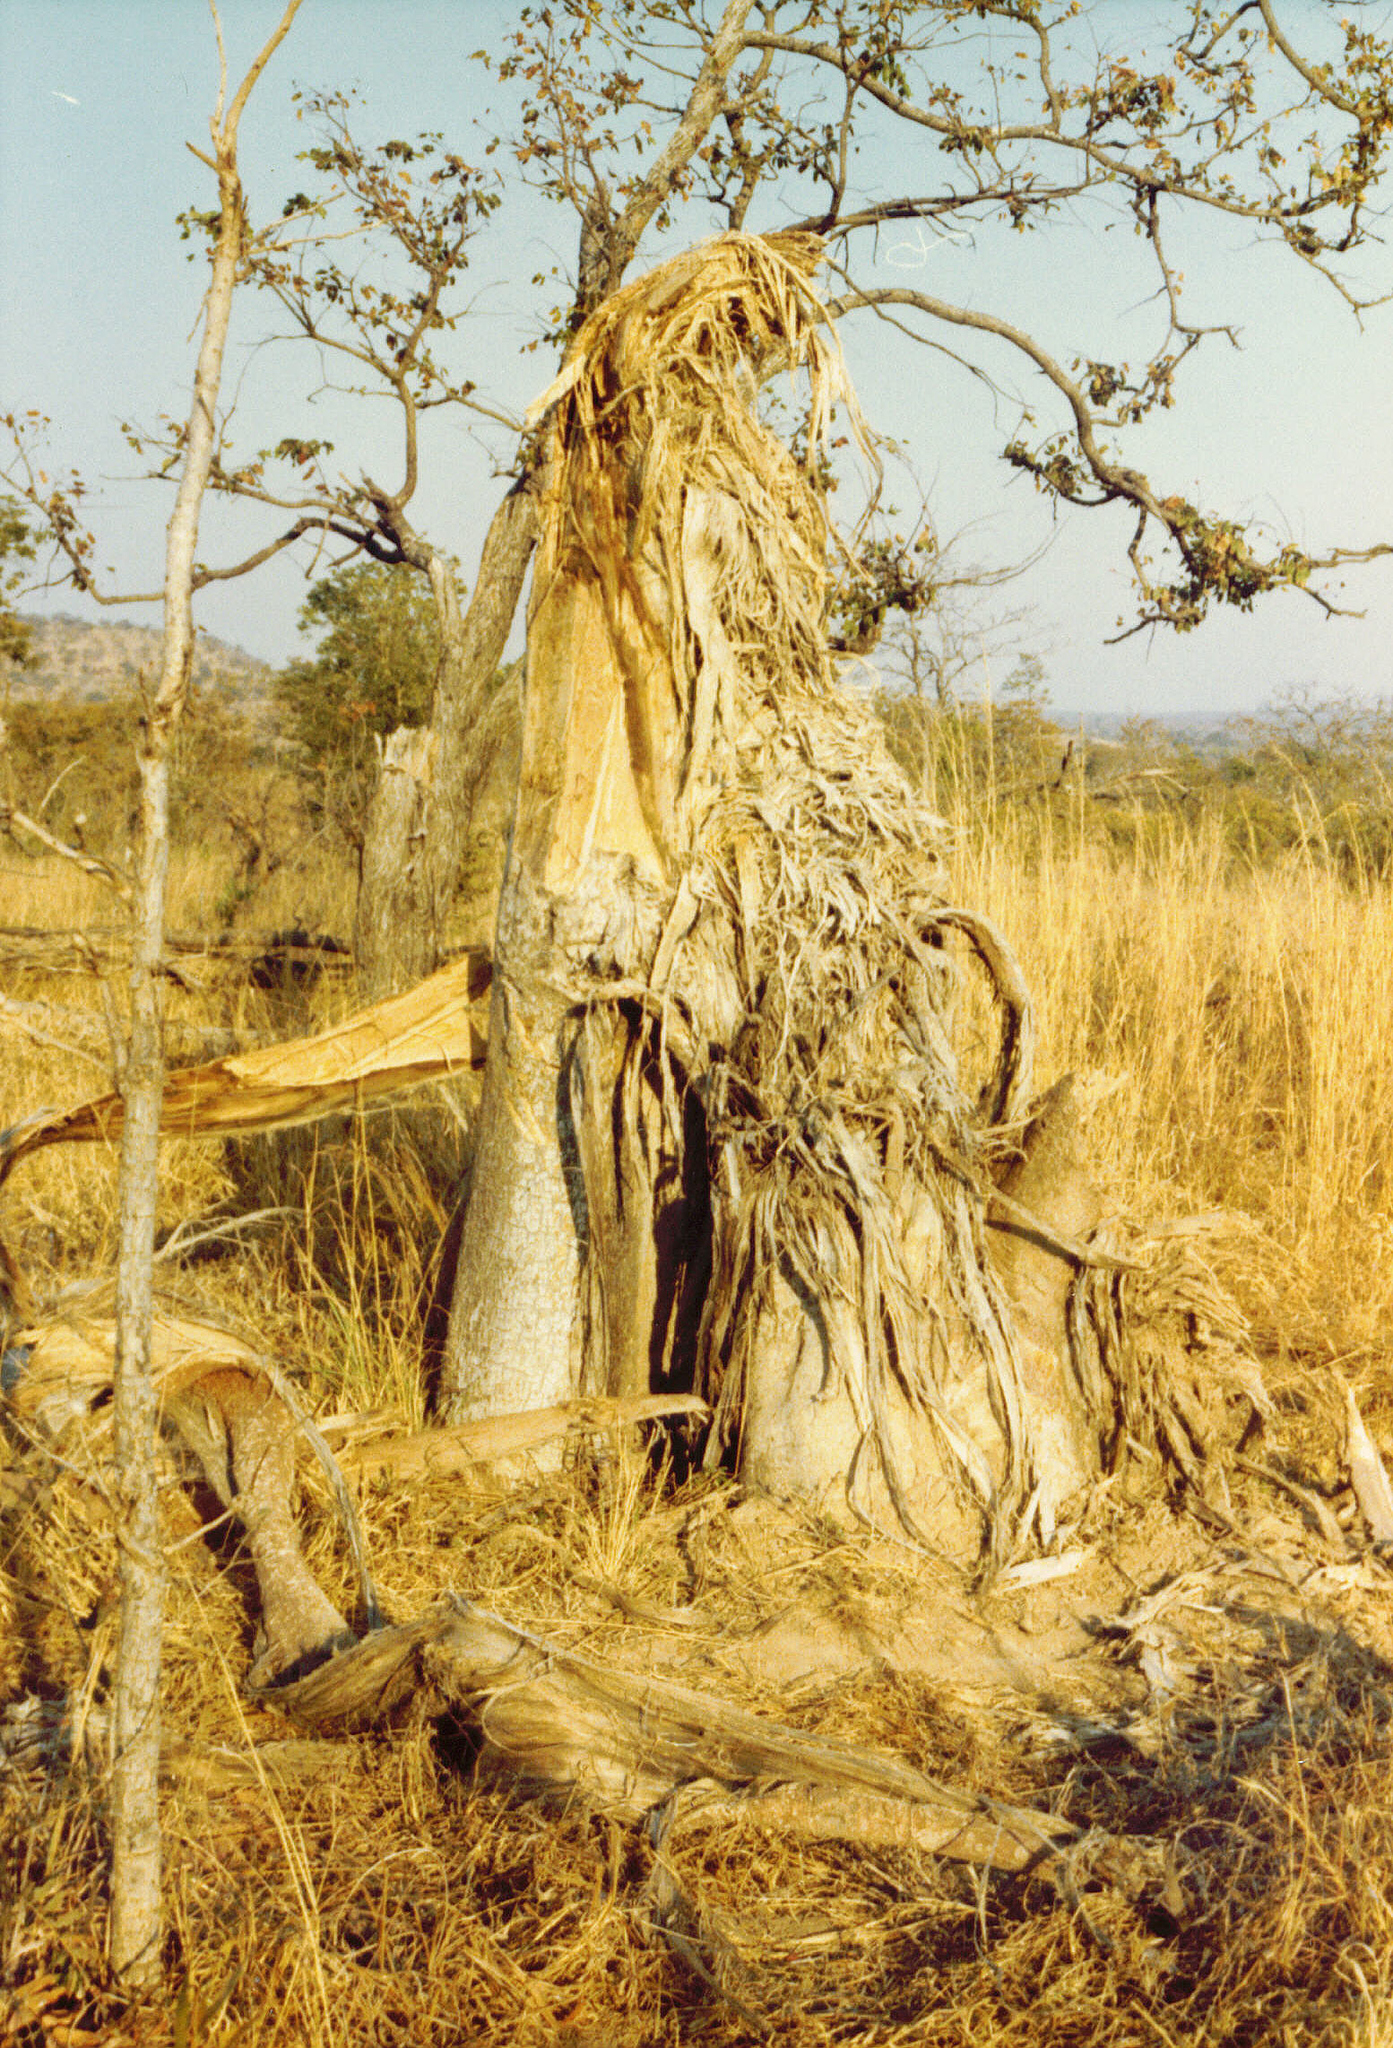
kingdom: Plantae
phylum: Tracheophyta
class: Magnoliopsida
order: Malvales
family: Malvaceae
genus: Adansonia
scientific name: Adansonia digitata
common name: Dead-rat-tree
